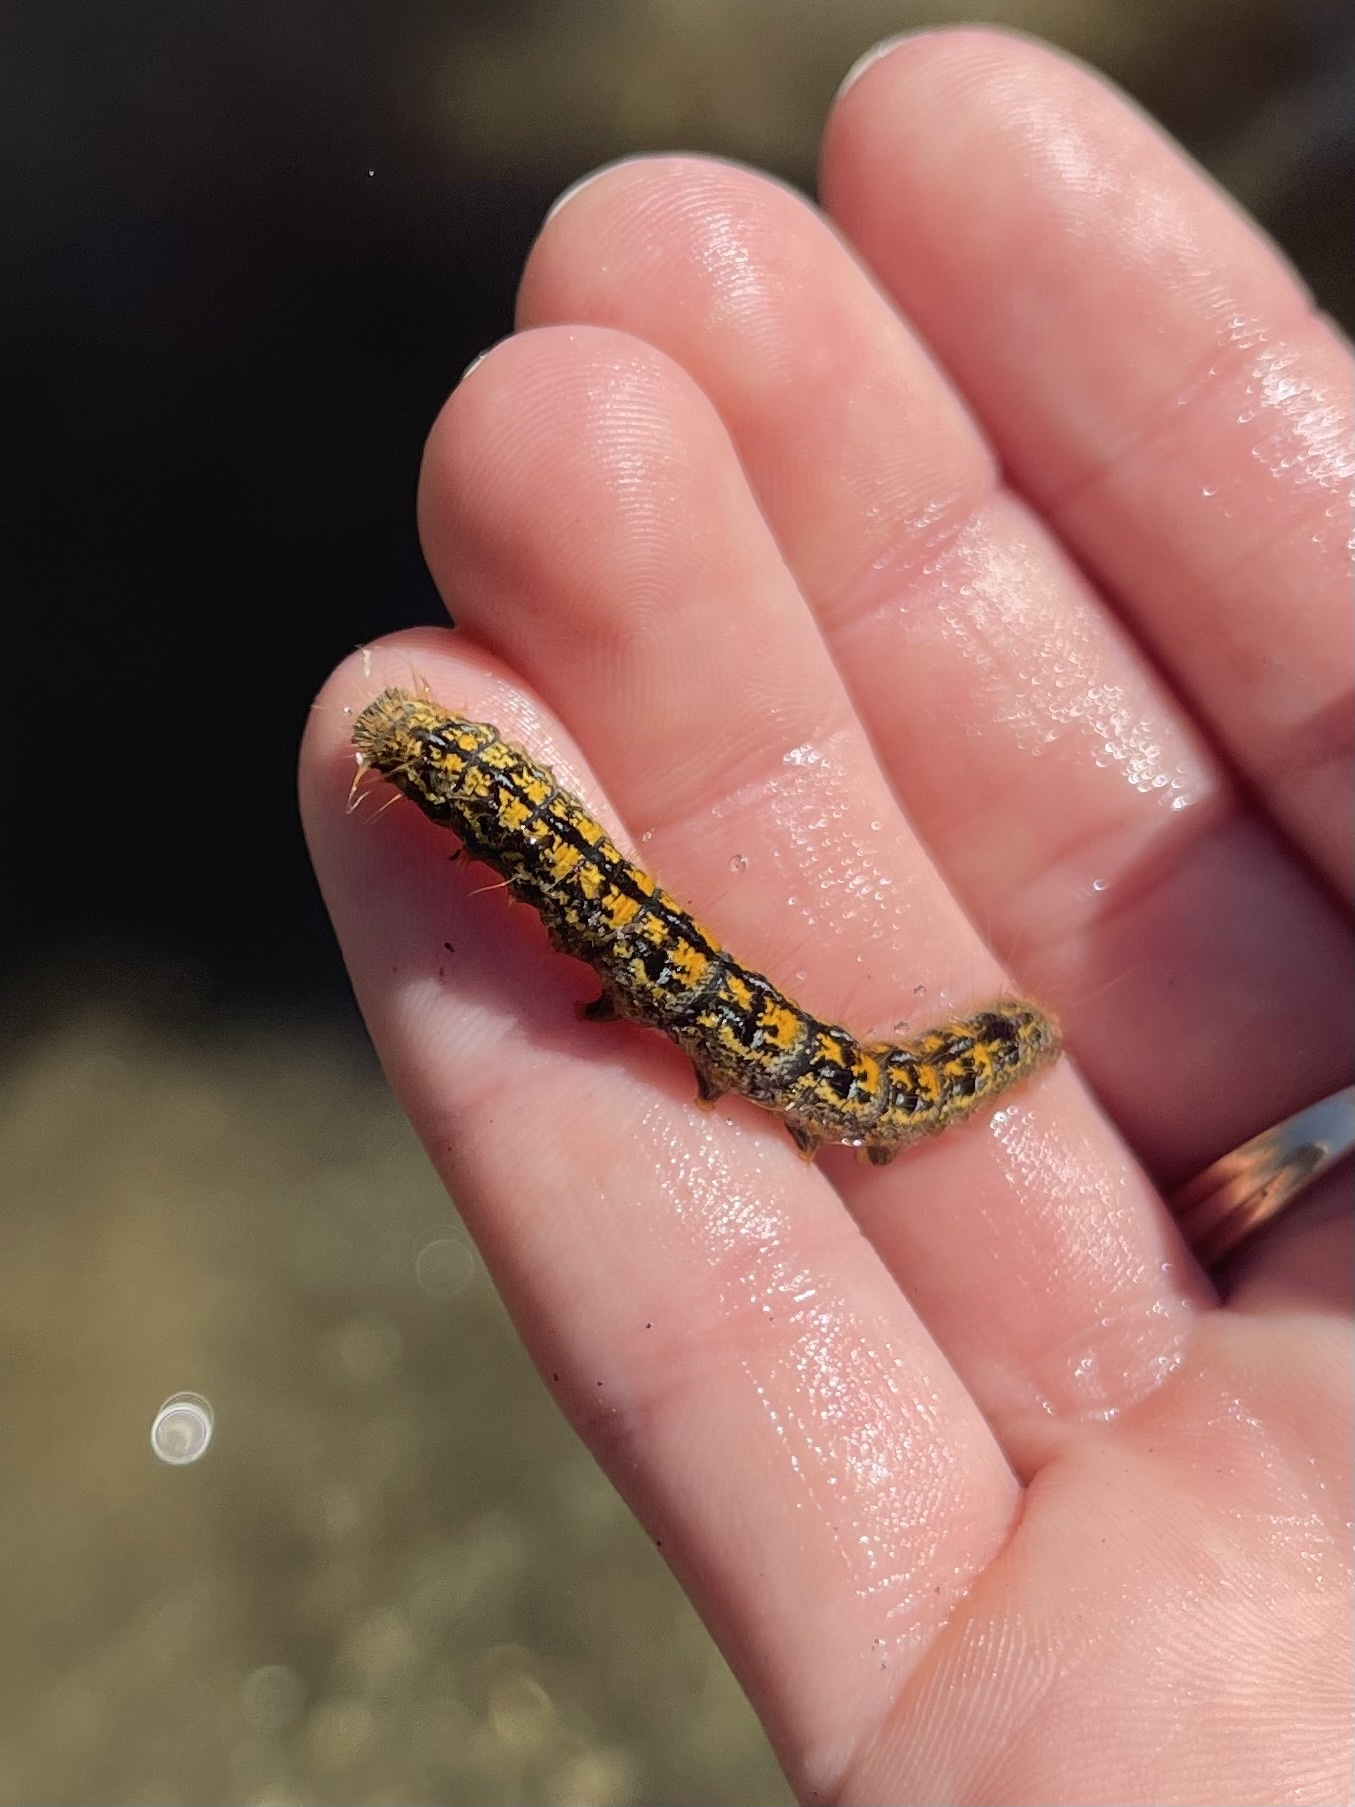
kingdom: Animalia
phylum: Arthropoda
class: Insecta
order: Lepidoptera
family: Lasiocampidae
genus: Malacosoma
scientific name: Malacosoma californica
